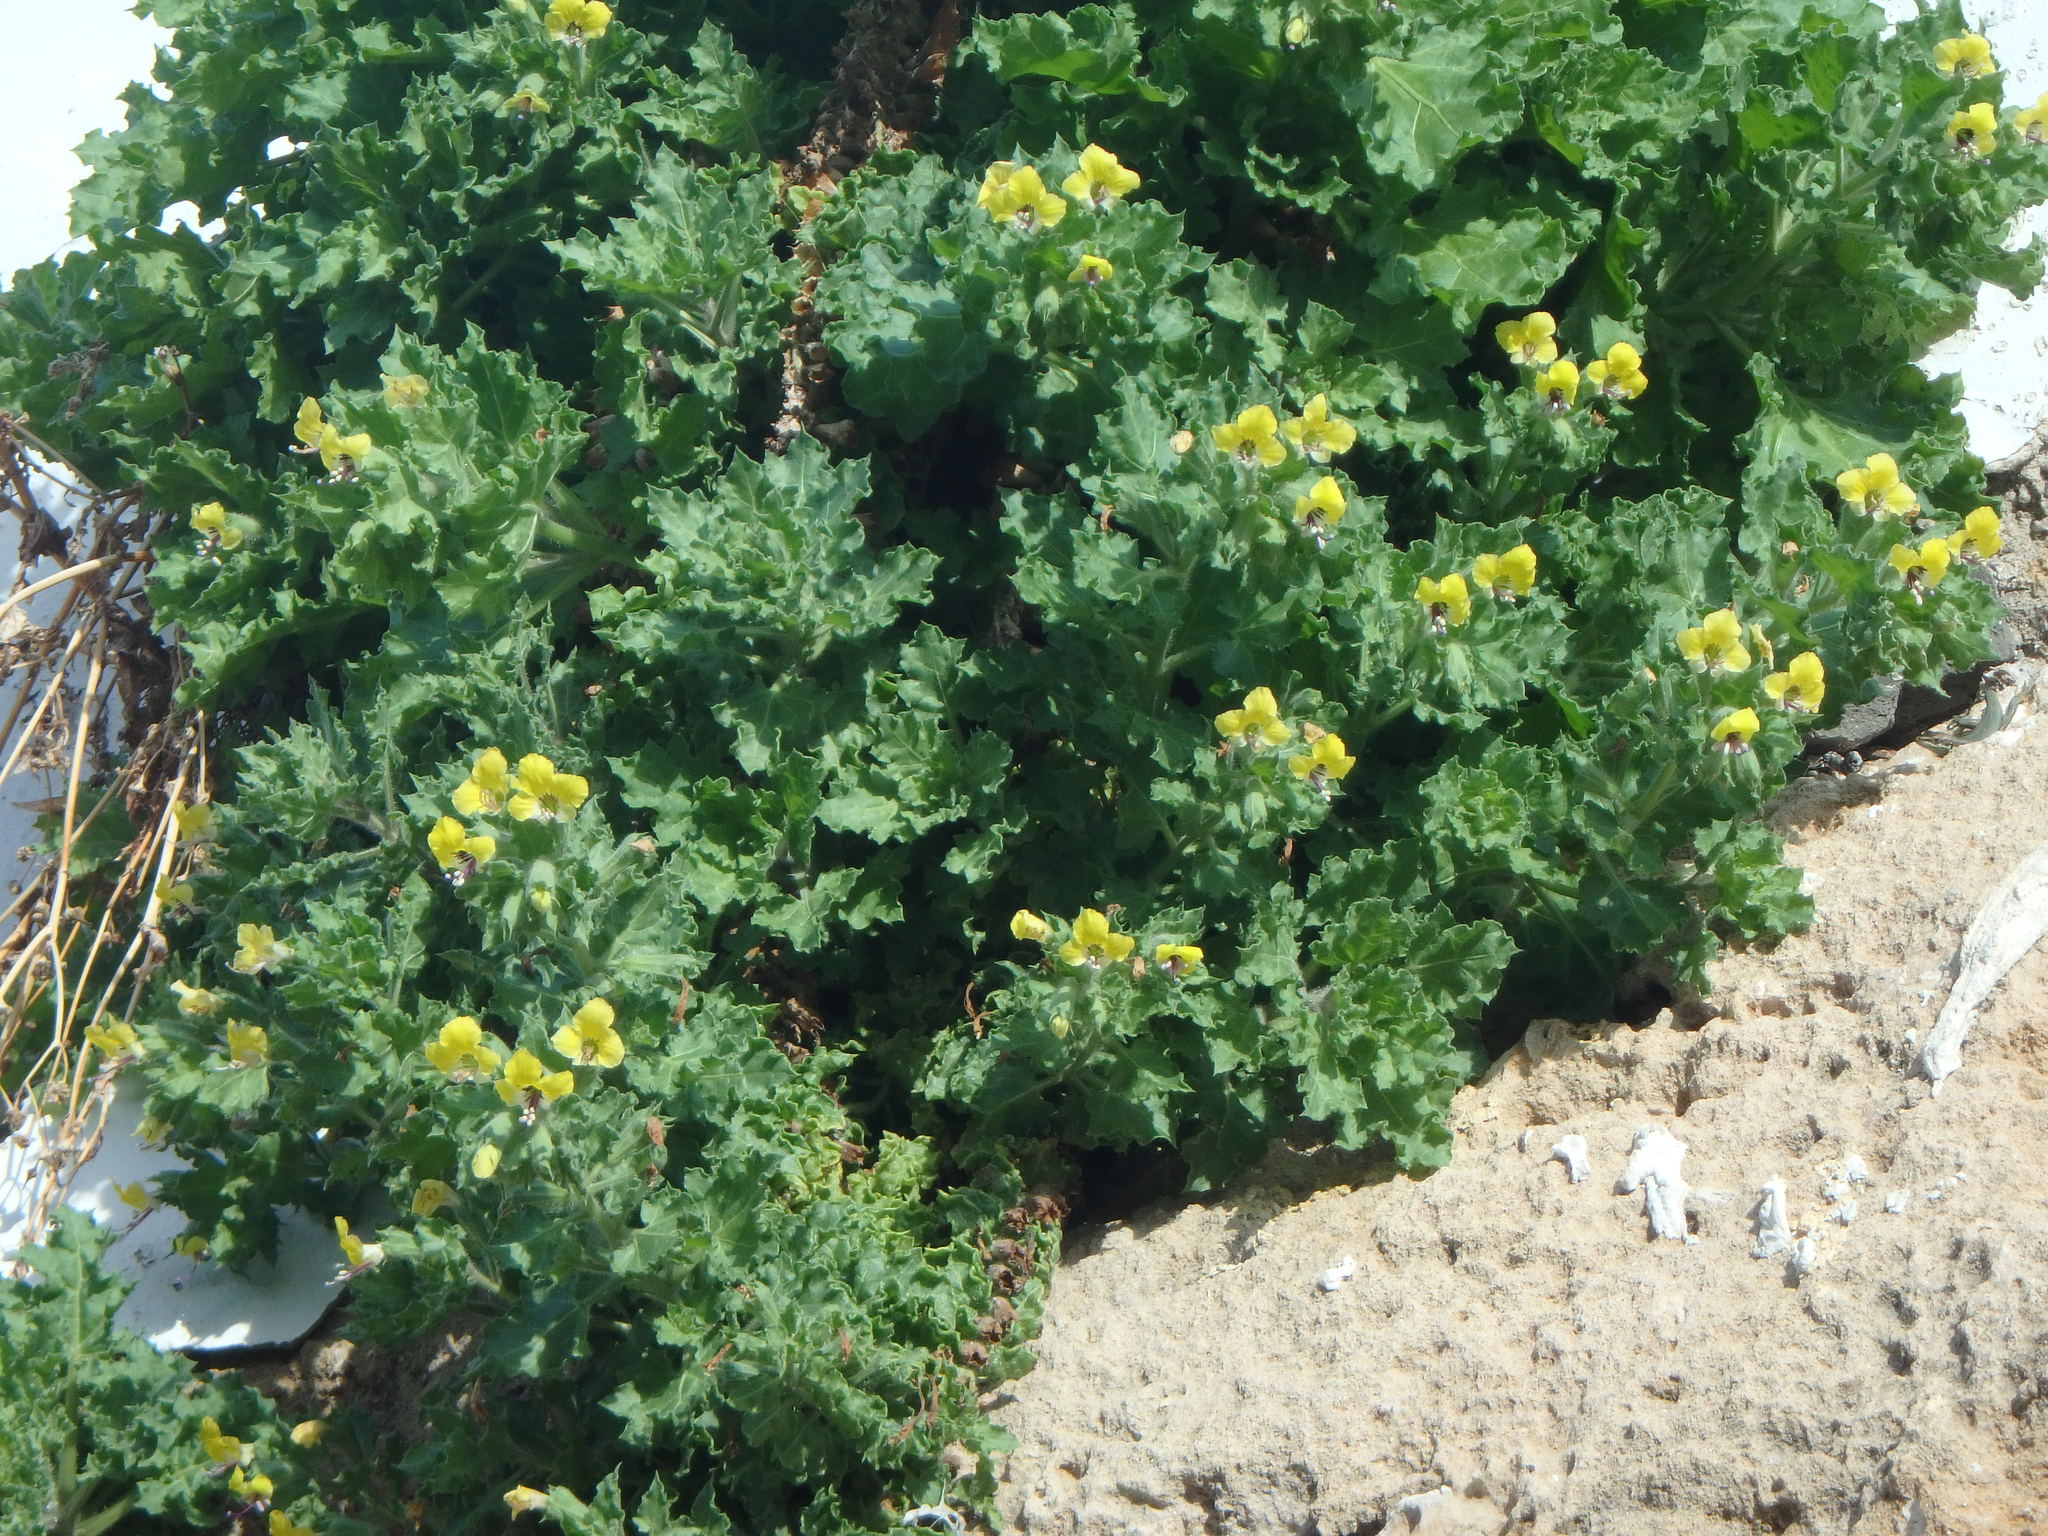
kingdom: Plantae
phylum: Tracheophyta
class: Magnoliopsida
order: Solanales
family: Solanaceae
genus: Hyoscyamus
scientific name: Hyoscyamus aureus
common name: Golden henbane
